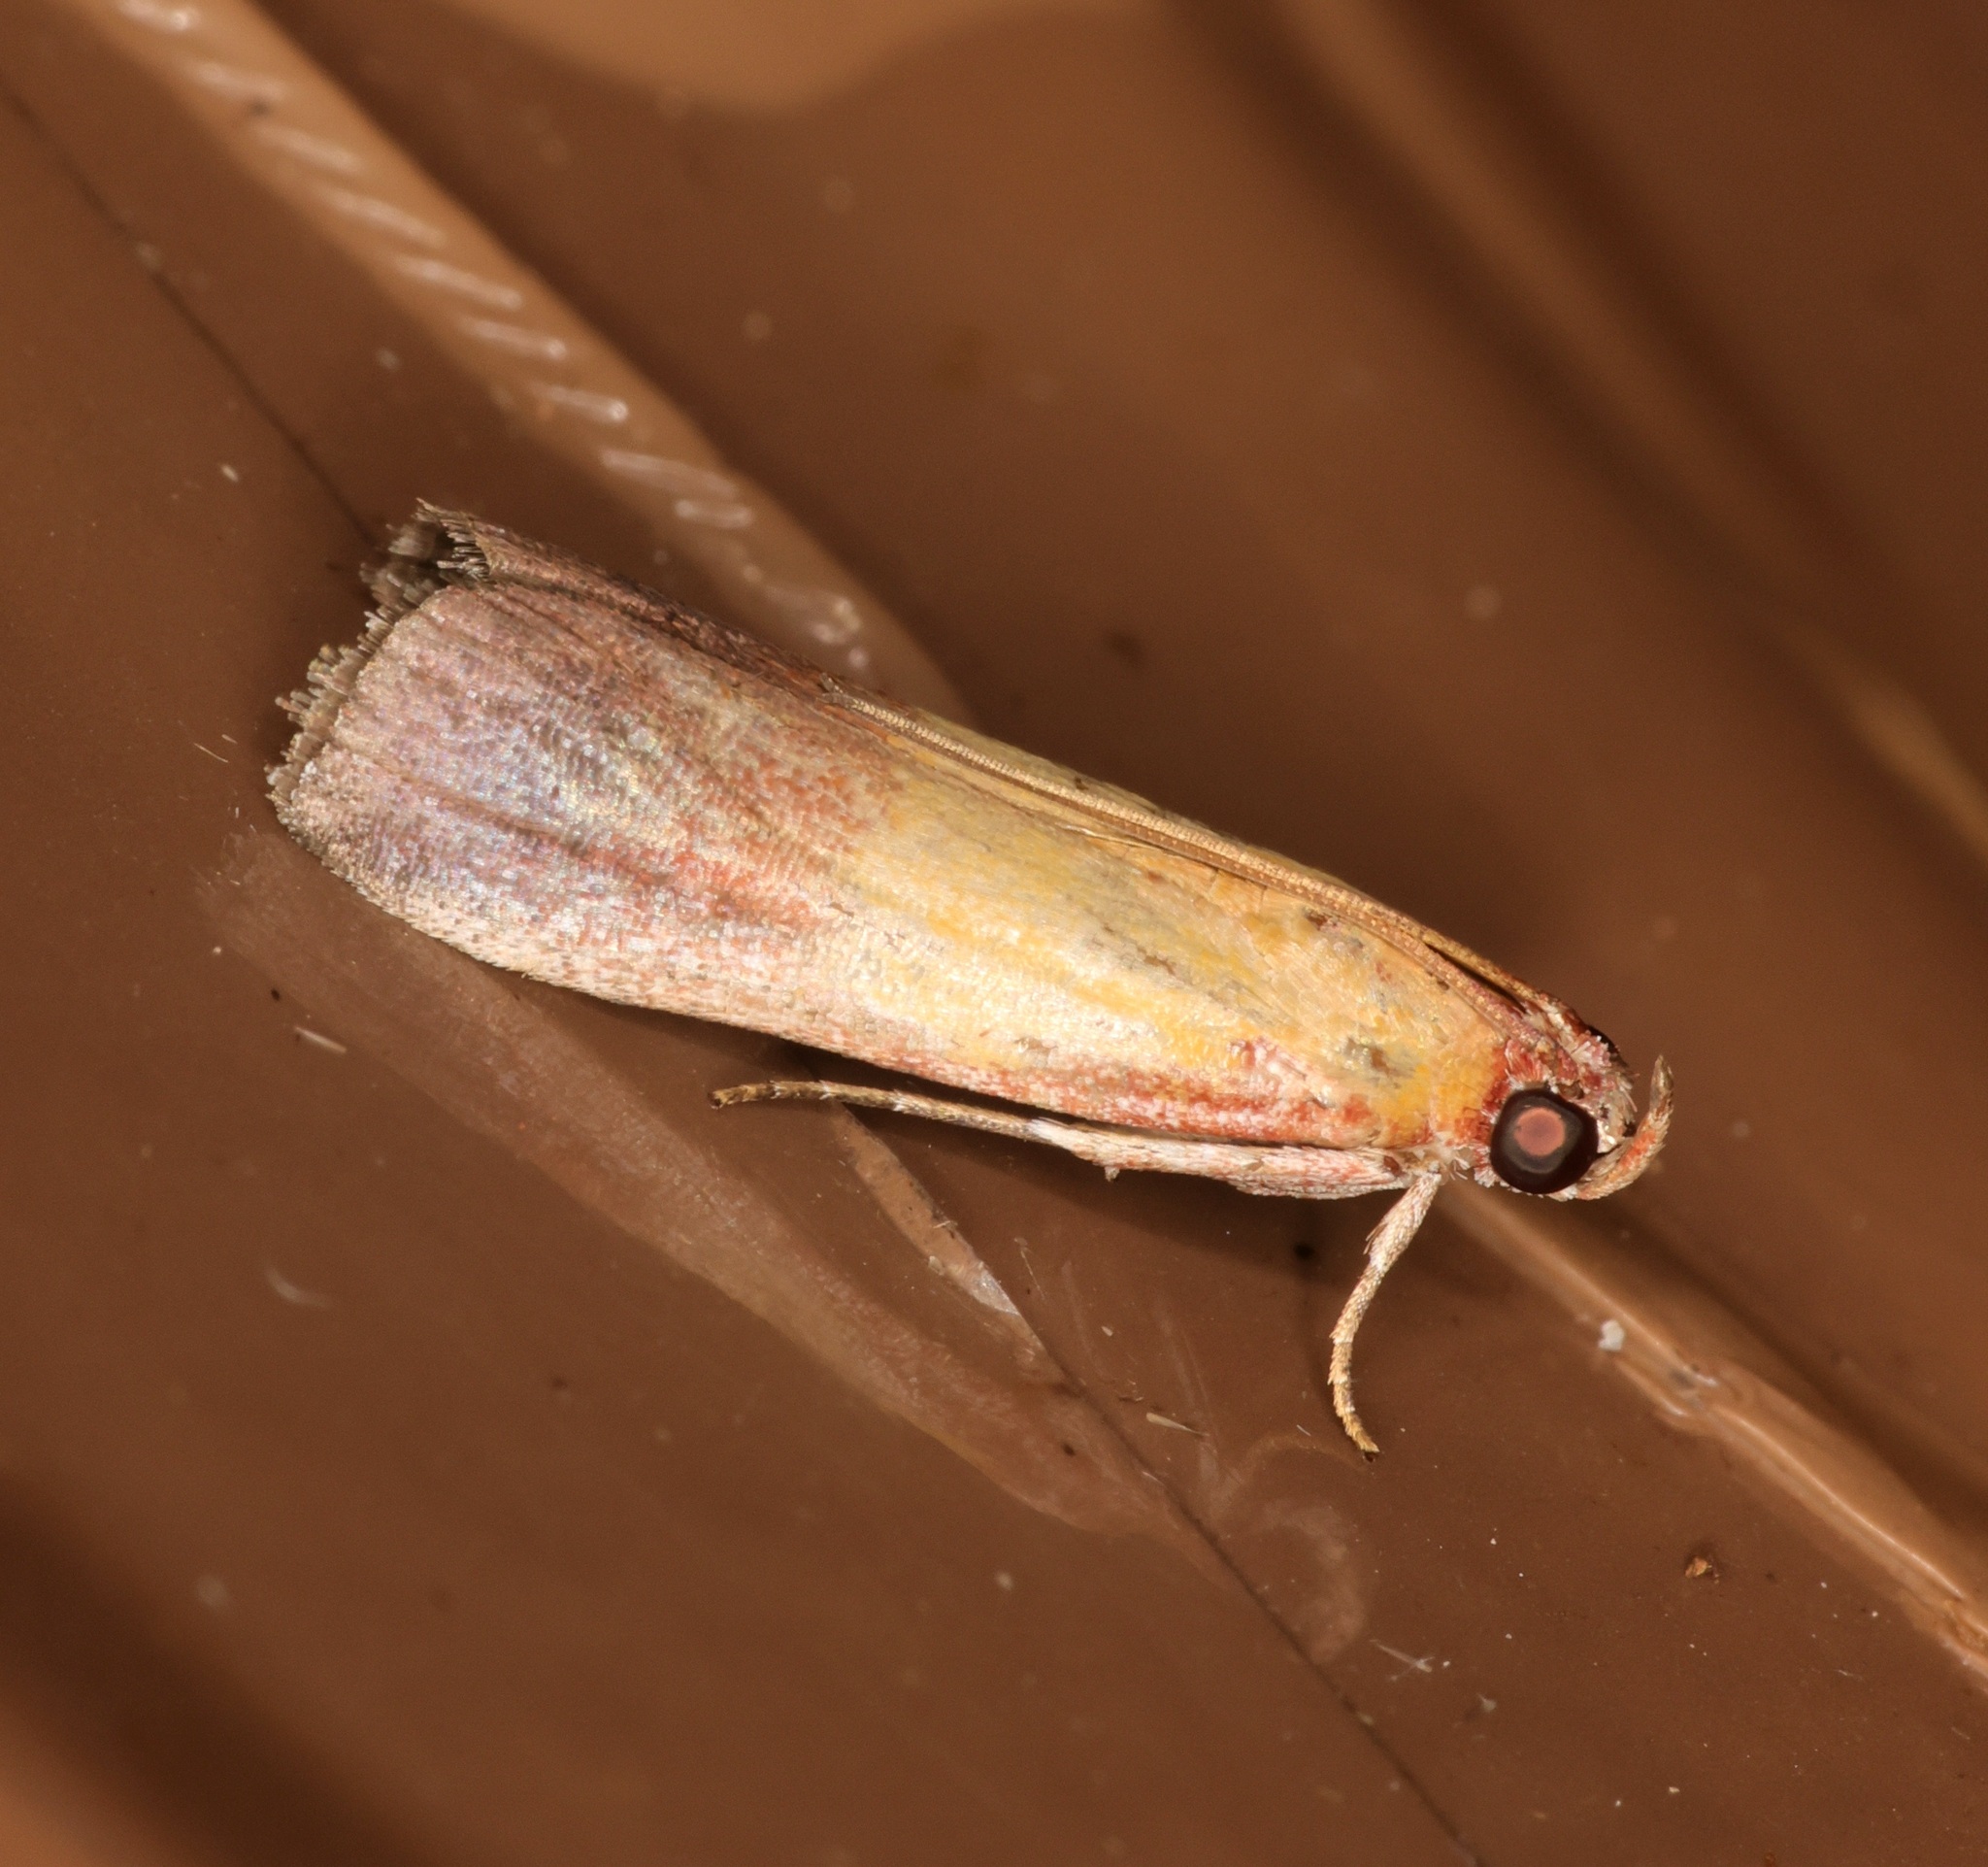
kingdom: Animalia
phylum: Arthropoda
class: Insecta
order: Lepidoptera
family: Pyralidae
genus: Piesmopoda
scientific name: Piesmopoda
